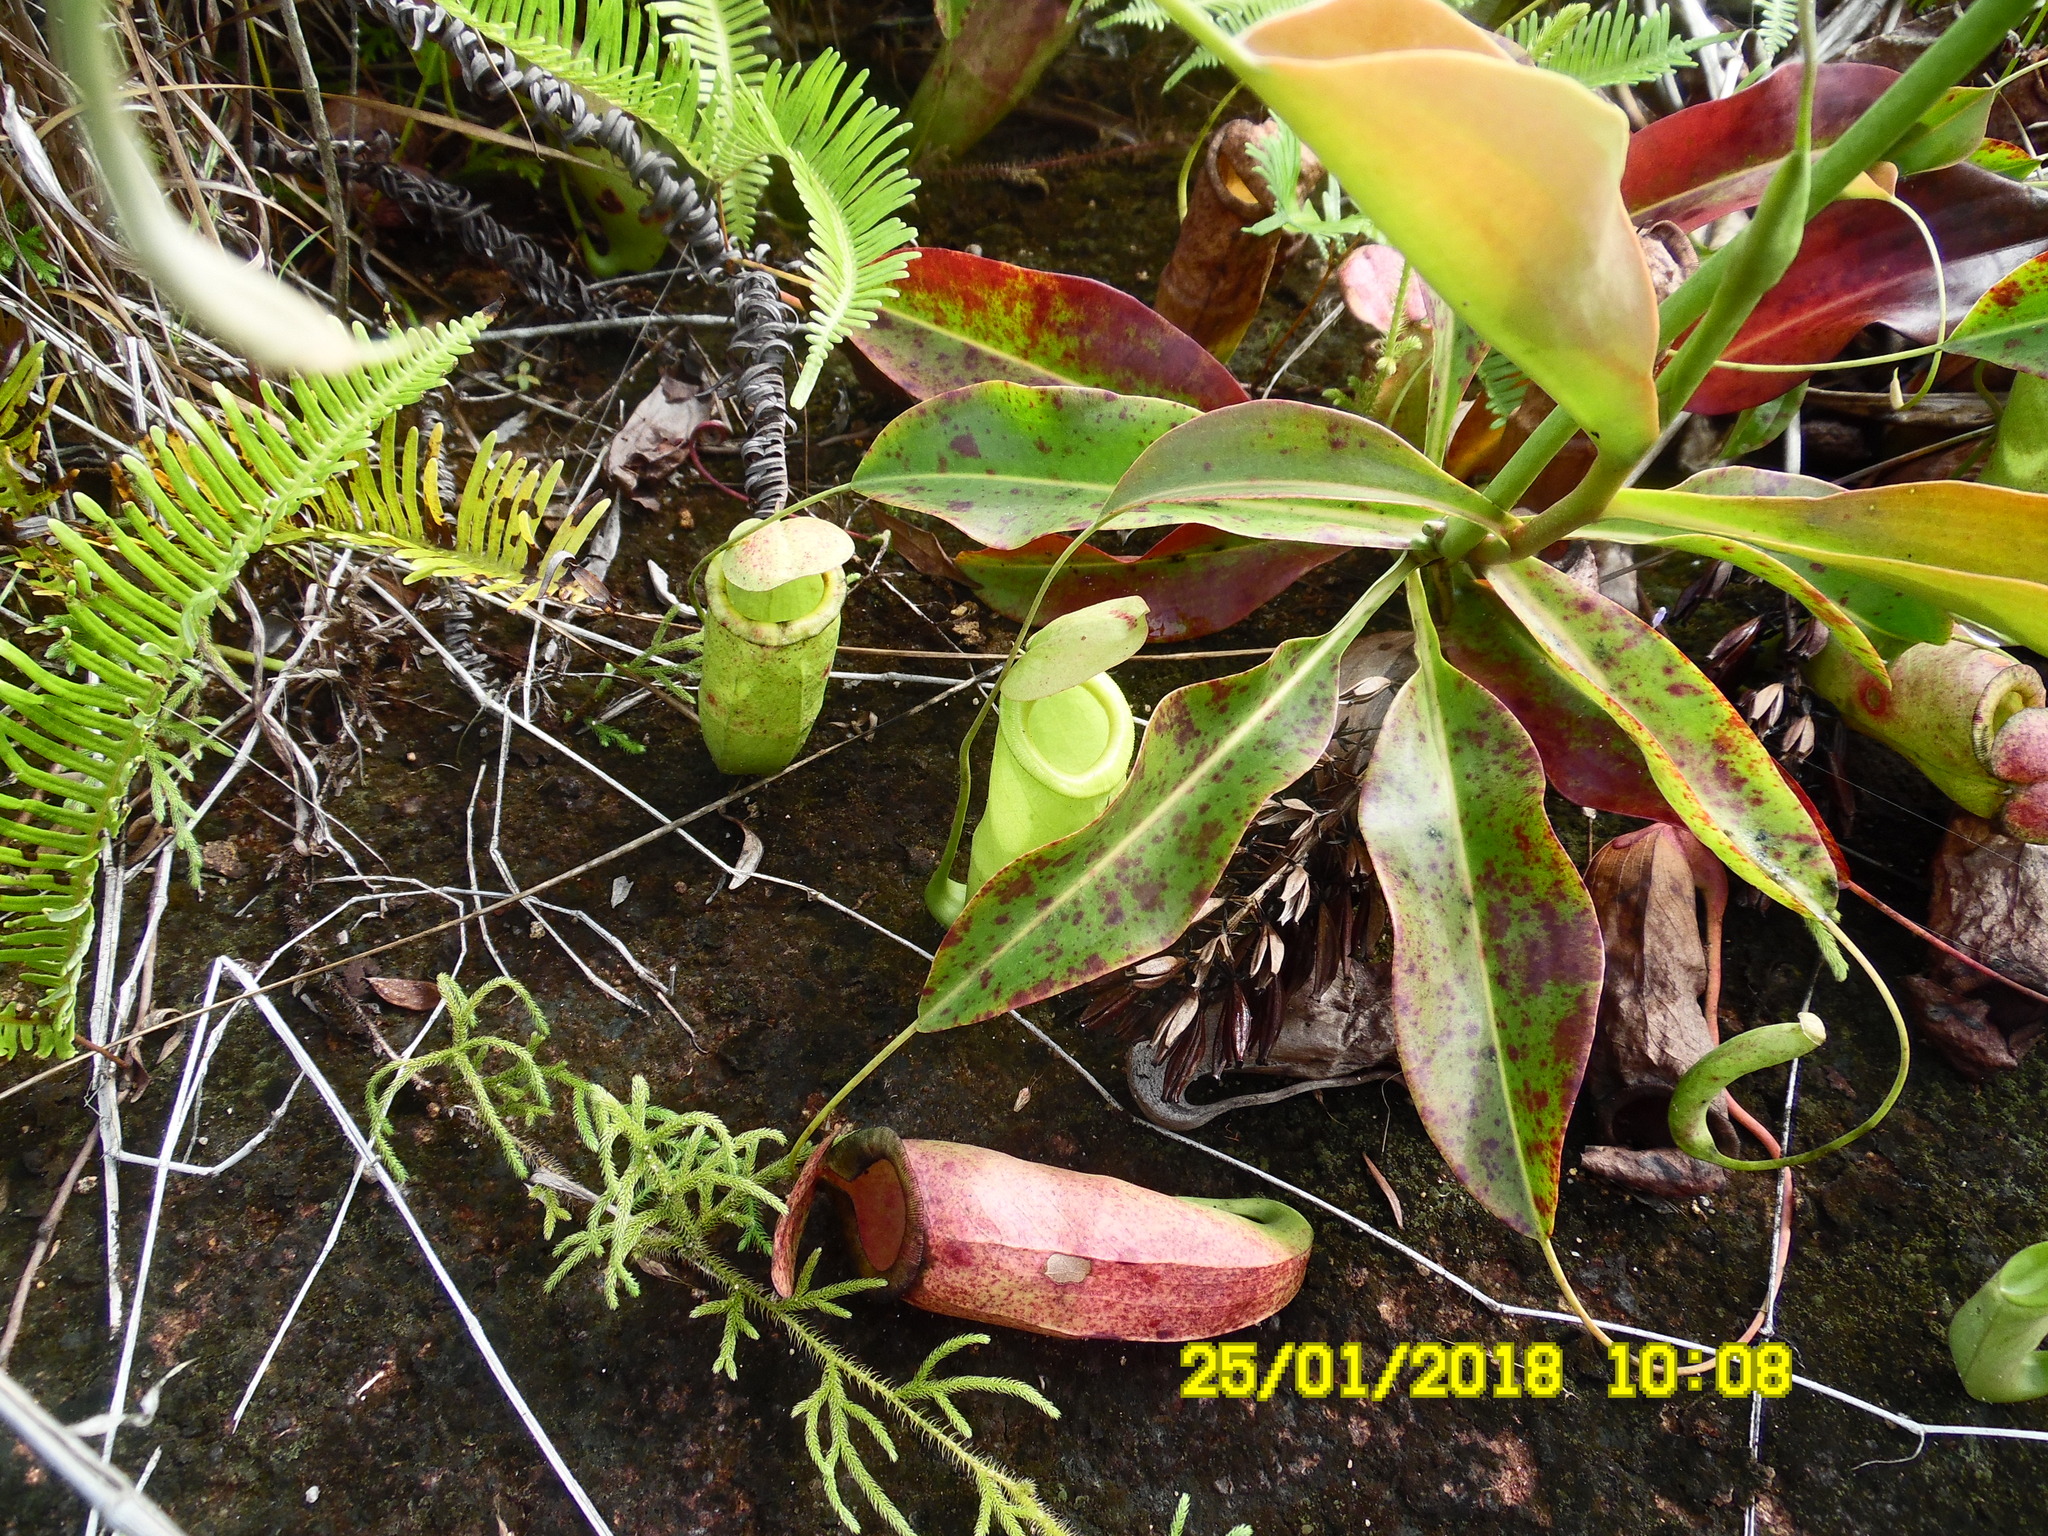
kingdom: Plantae
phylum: Tracheophyta
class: Magnoliopsida
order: Caryophyllales
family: Nepenthaceae
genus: Nepenthes
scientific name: Nepenthes mirabilis
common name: Tropical pitcherplant
